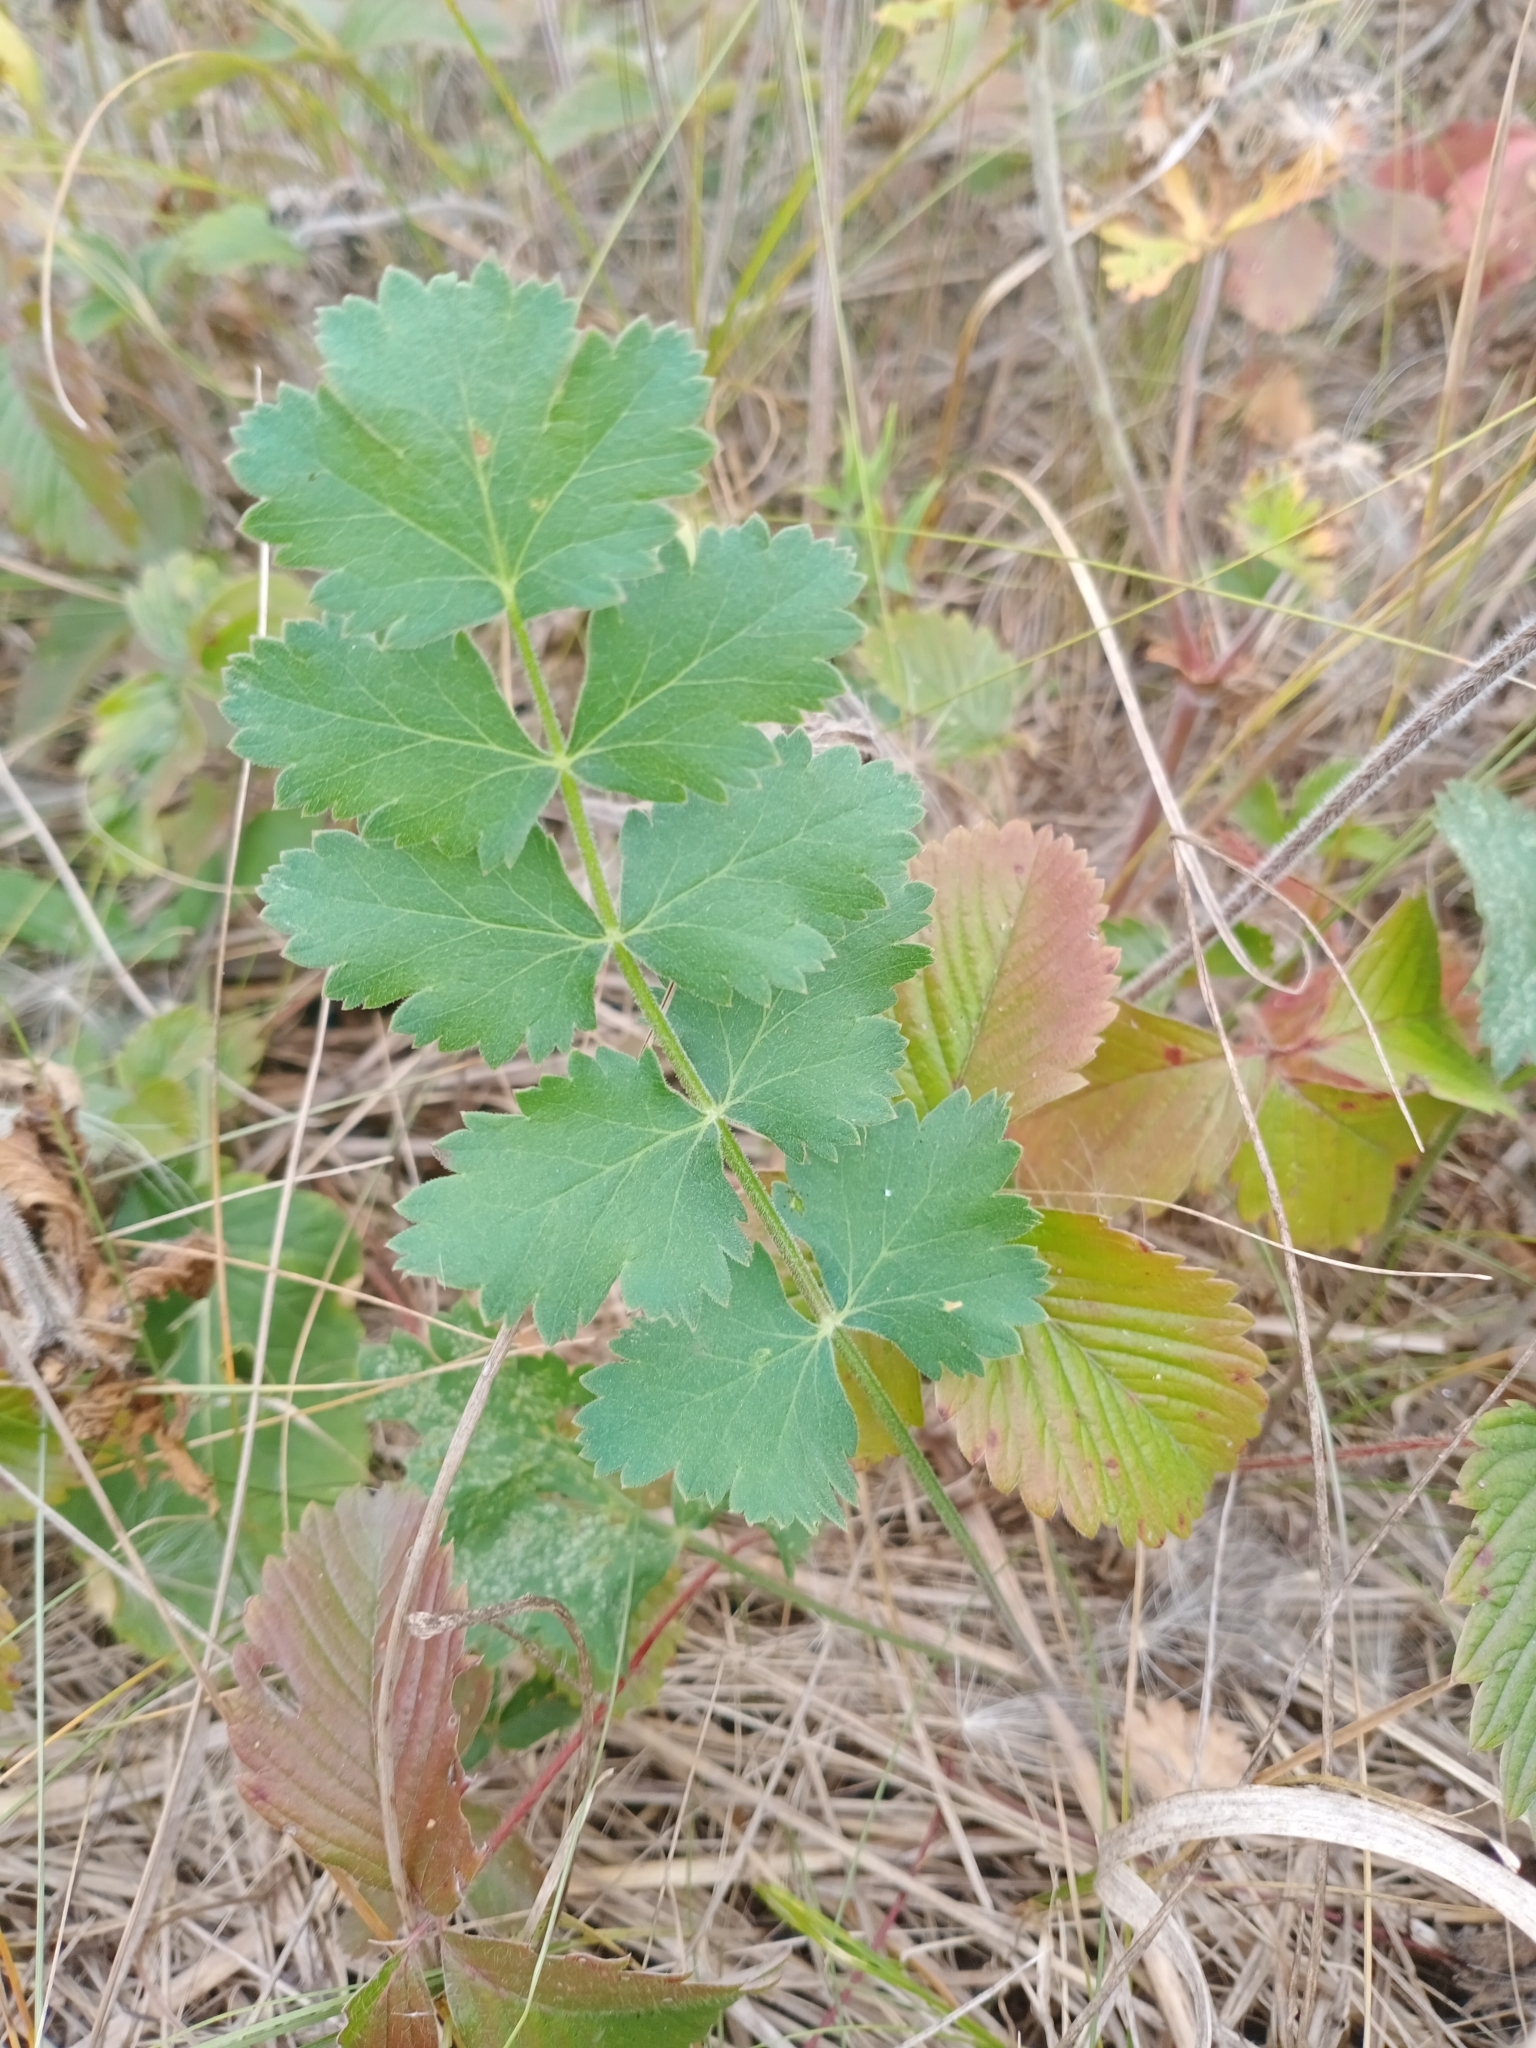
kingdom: Plantae
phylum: Tracheophyta
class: Magnoliopsida
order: Apiales
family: Apiaceae
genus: Pimpinella
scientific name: Pimpinella saxifraga
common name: Burnet-saxifrage
